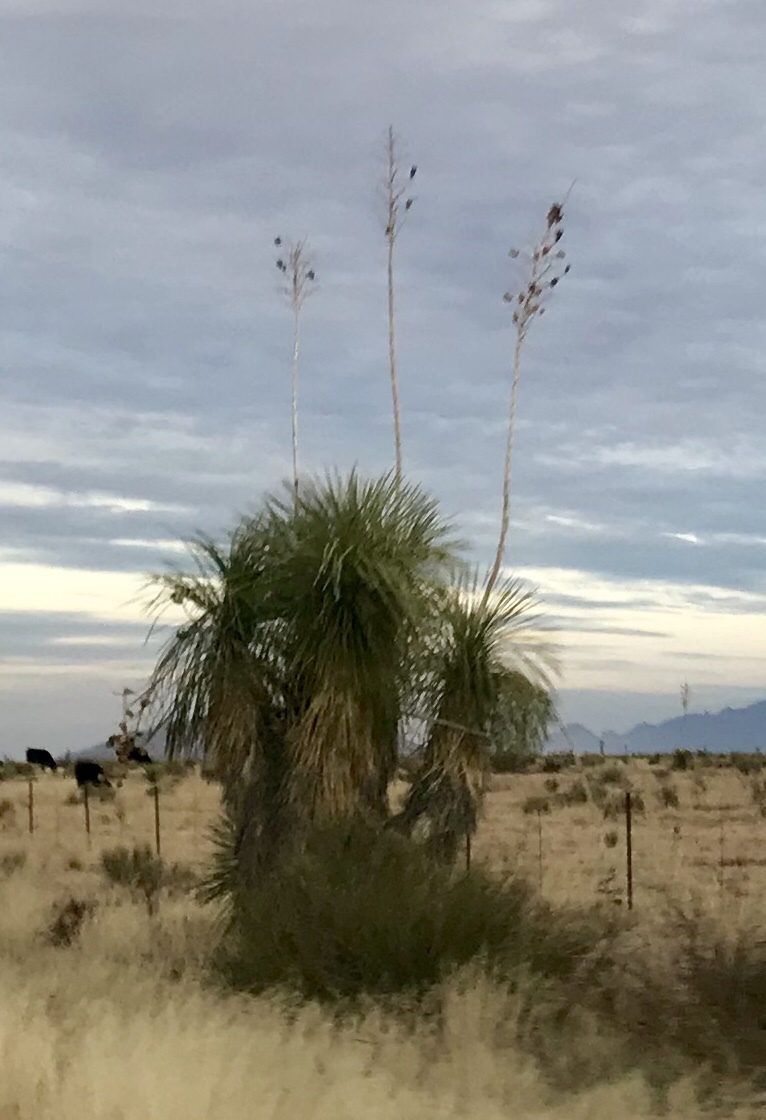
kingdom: Plantae
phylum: Tracheophyta
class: Liliopsida
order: Asparagales
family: Asparagaceae
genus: Yucca
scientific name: Yucca elata
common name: Palmella
